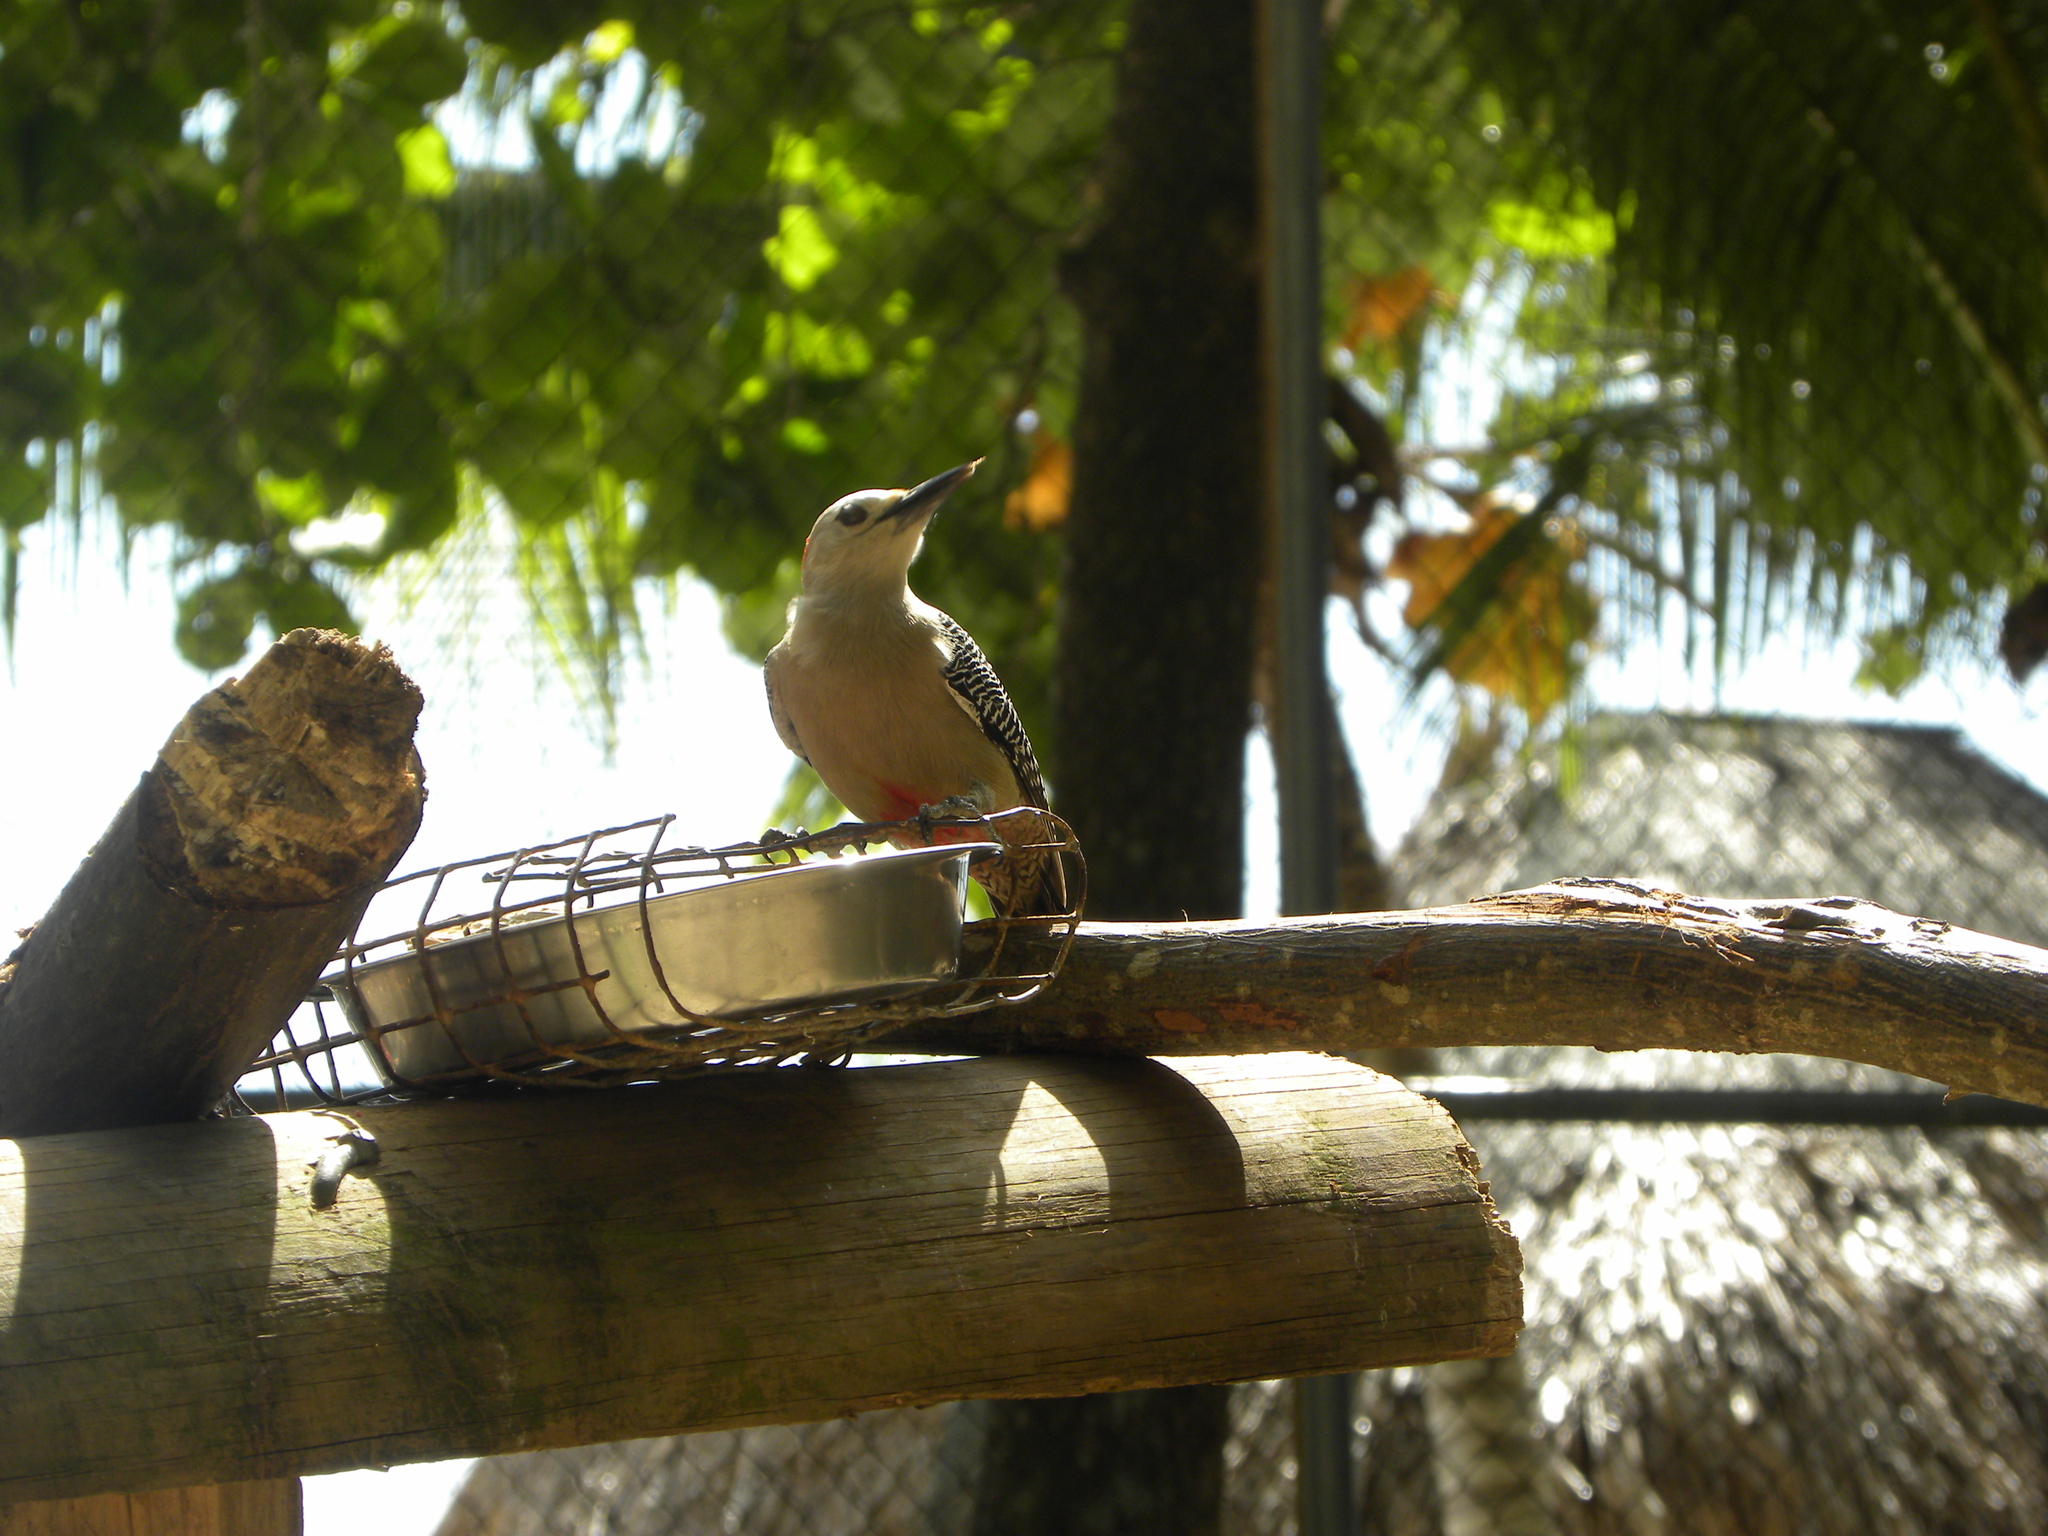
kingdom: Animalia
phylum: Chordata
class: Aves
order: Piciformes
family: Picidae
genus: Melanerpes
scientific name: Melanerpes aurifrons
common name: Golden-fronted woodpecker
